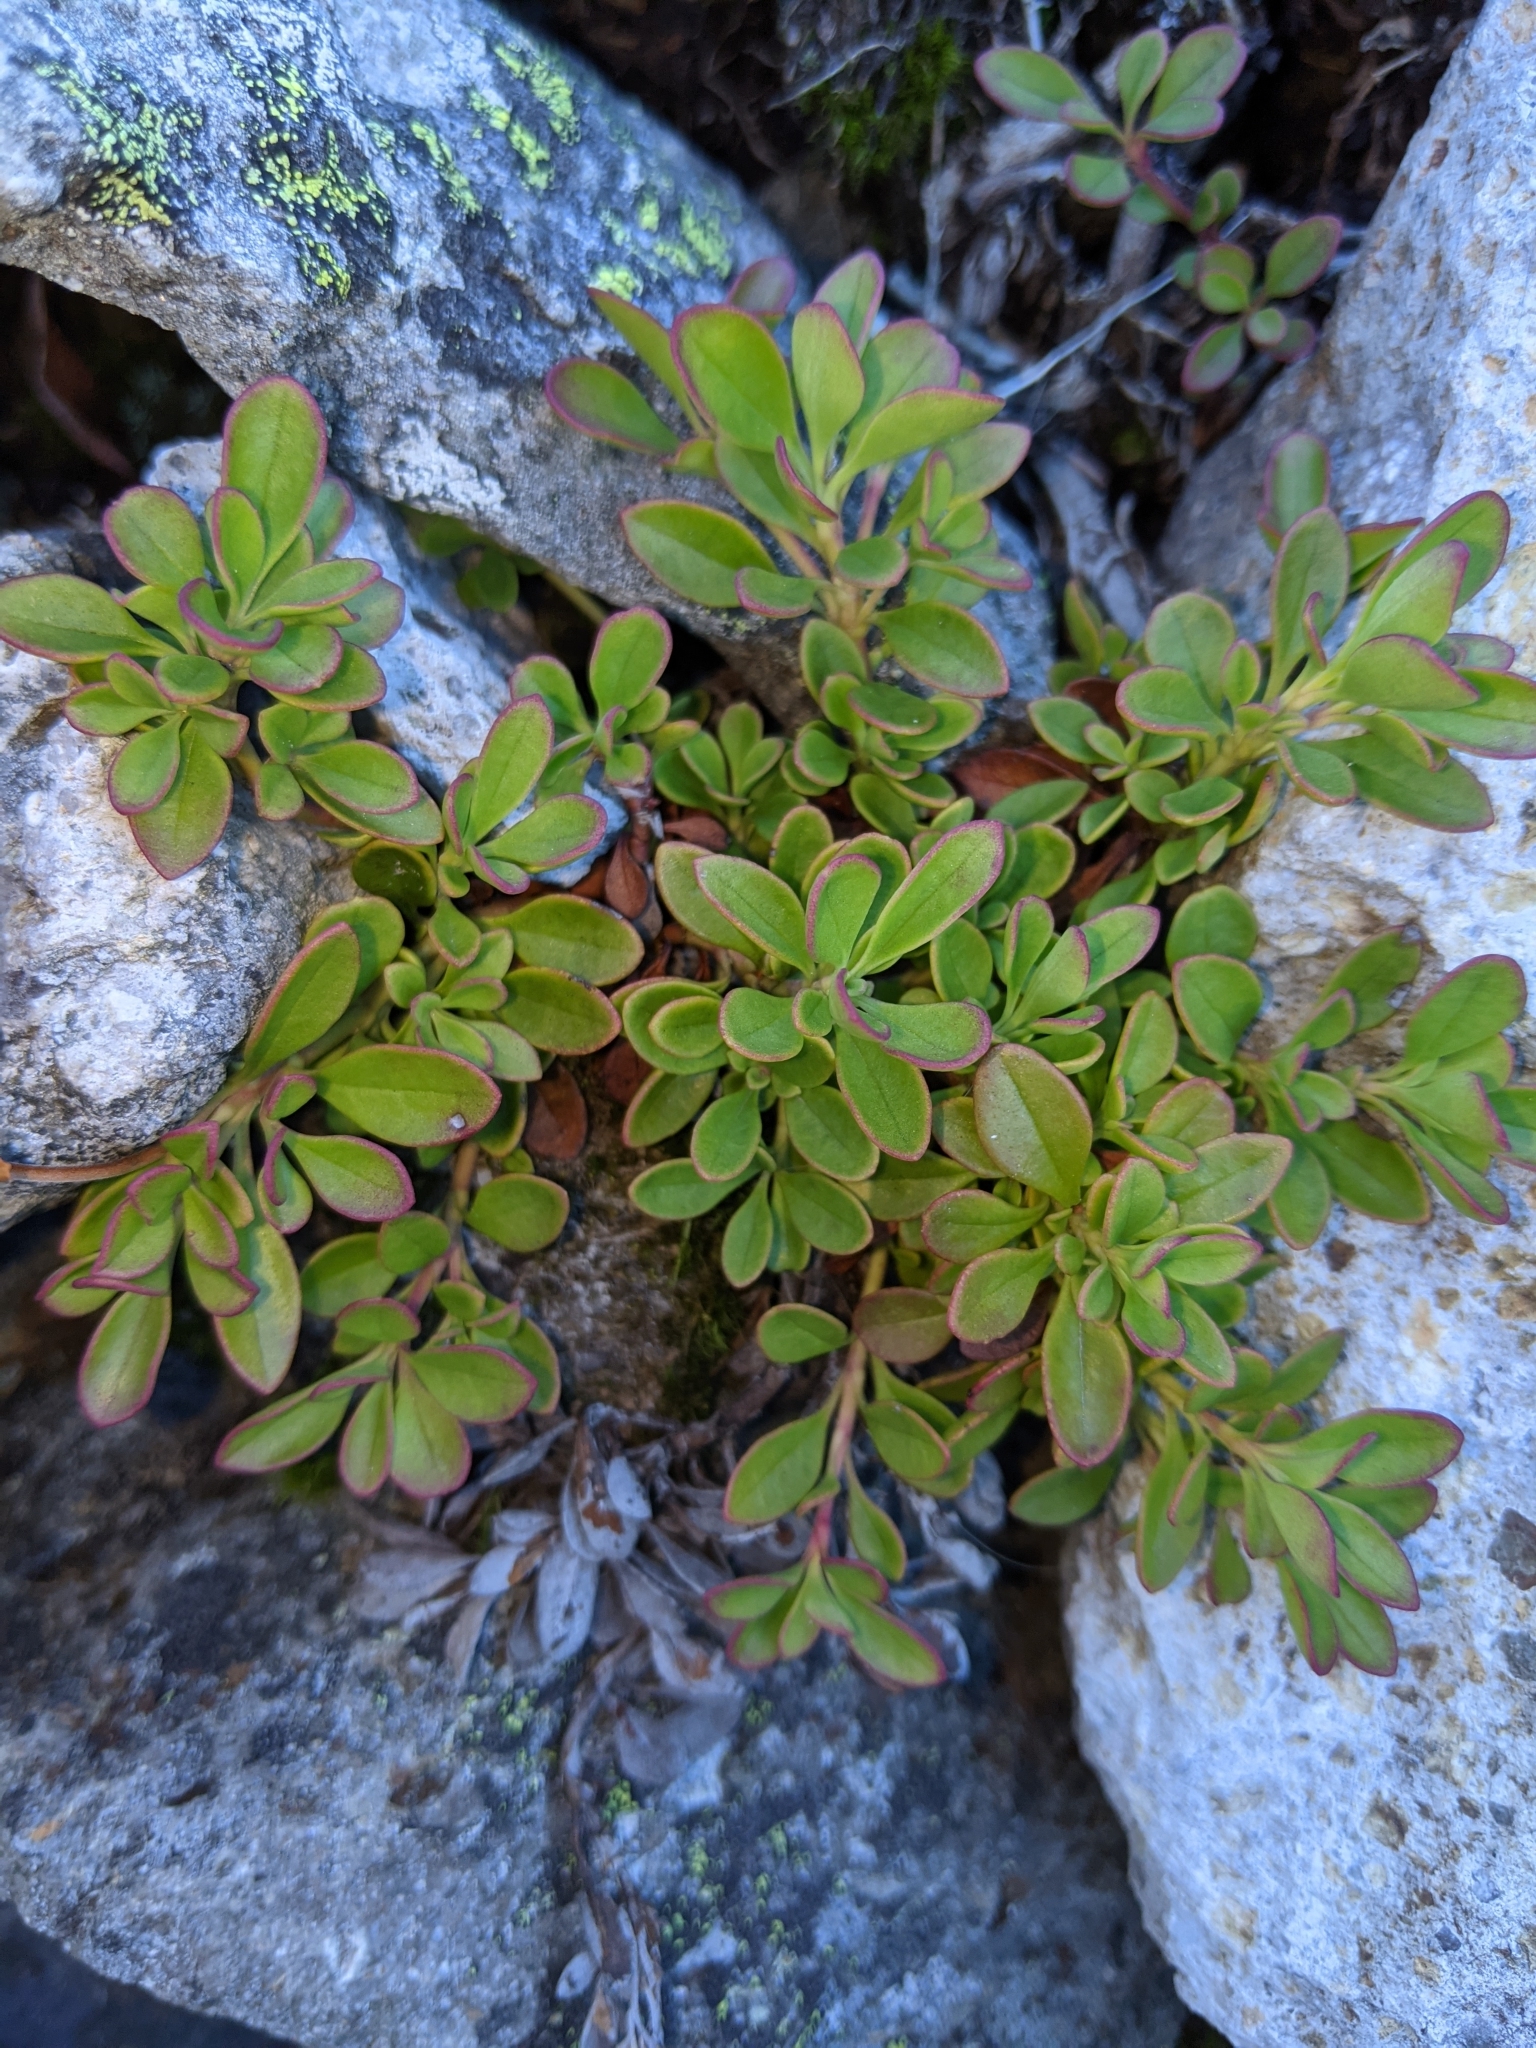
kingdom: Plantae
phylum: Tracheophyta
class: Magnoliopsida
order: Lamiales
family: Plantaginaceae
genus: Penstemon
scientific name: Penstemon davidsonii
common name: Davidson's penstemon
